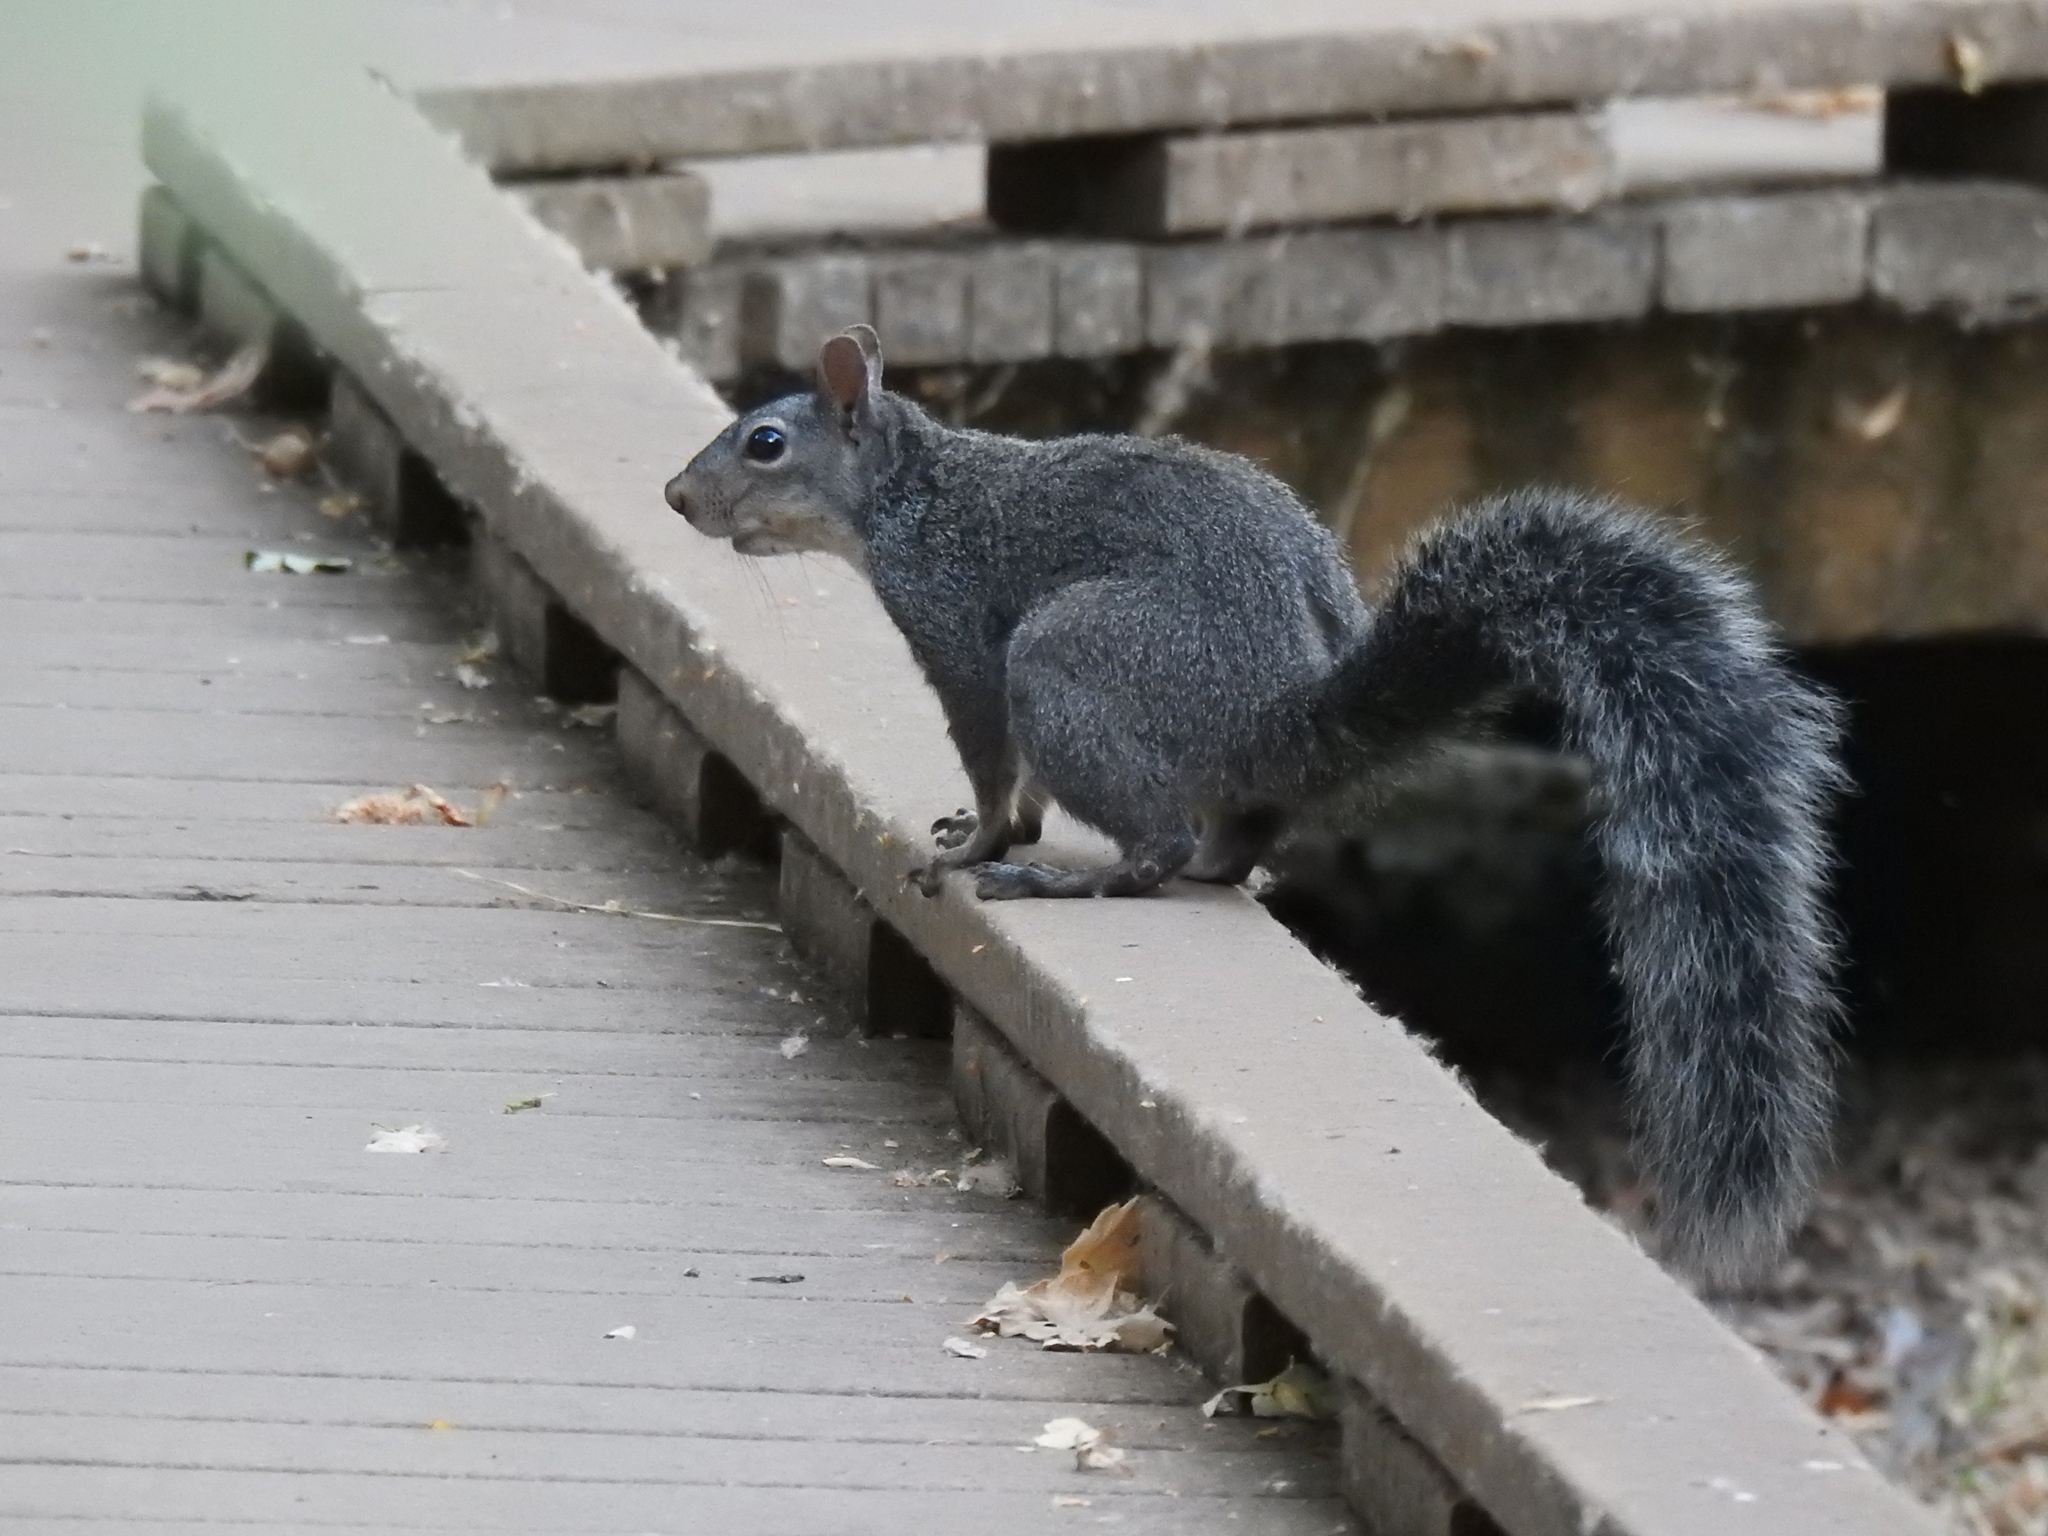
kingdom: Animalia
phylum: Chordata
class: Mammalia
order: Rodentia
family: Sciuridae
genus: Sciurus
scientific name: Sciurus griseus
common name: Western gray squirrel
